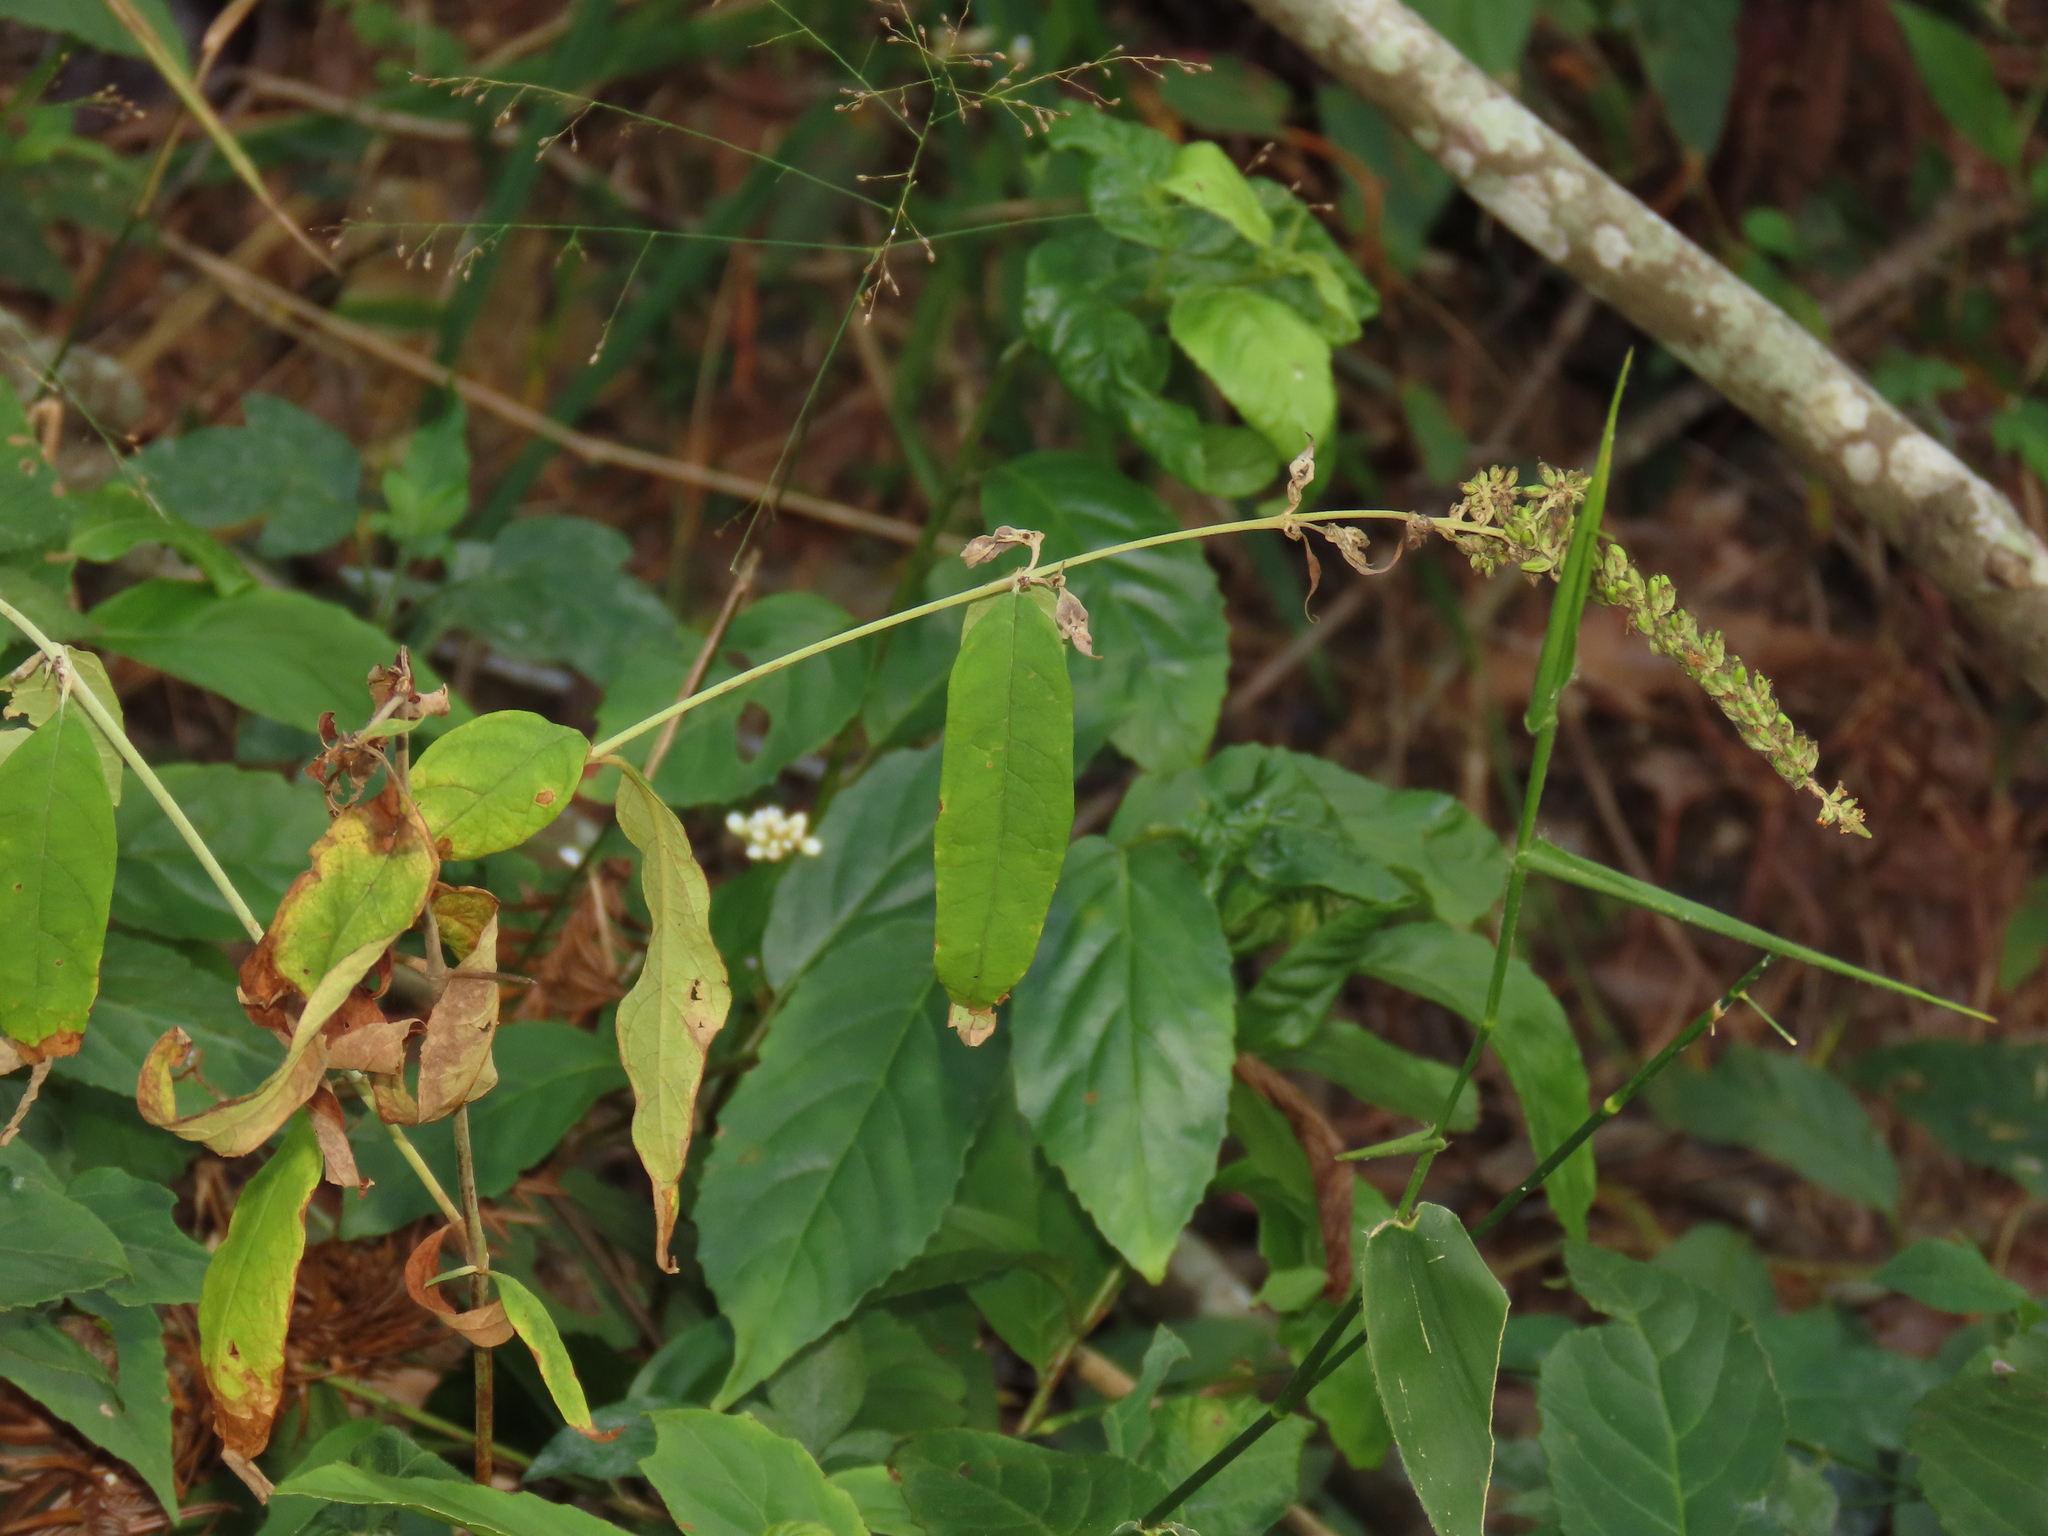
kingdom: Plantae
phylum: Tracheophyta
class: Magnoliopsida
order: Lamiales
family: Scrophulariaceae
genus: Buddleja
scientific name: Buddleja asiatica
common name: Dog tail
